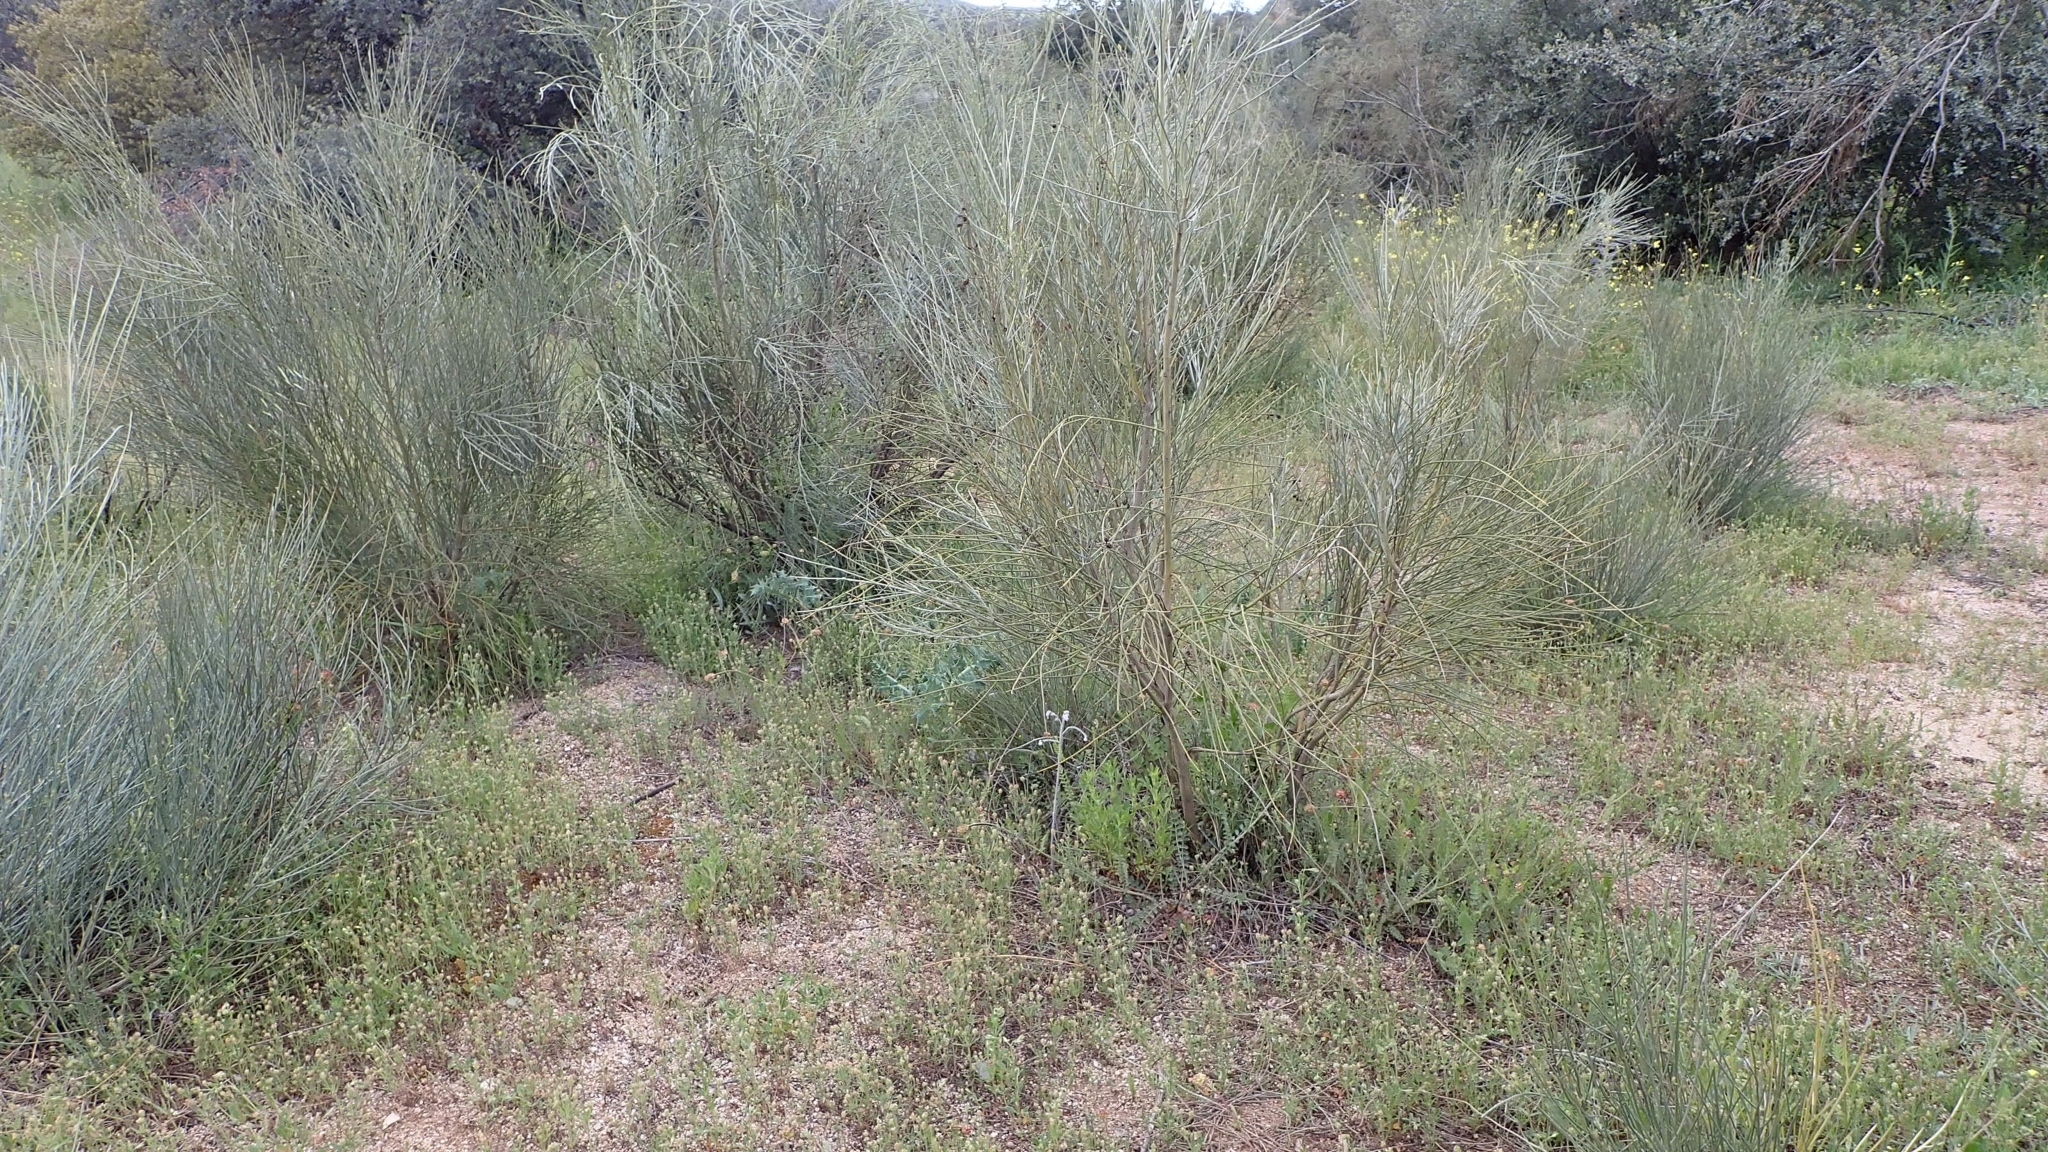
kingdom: Plantae
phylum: Tracheophyta
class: Magnoliopsida
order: Fabales
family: Fabaceae
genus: Retama
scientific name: Retama sphaerocarpa
